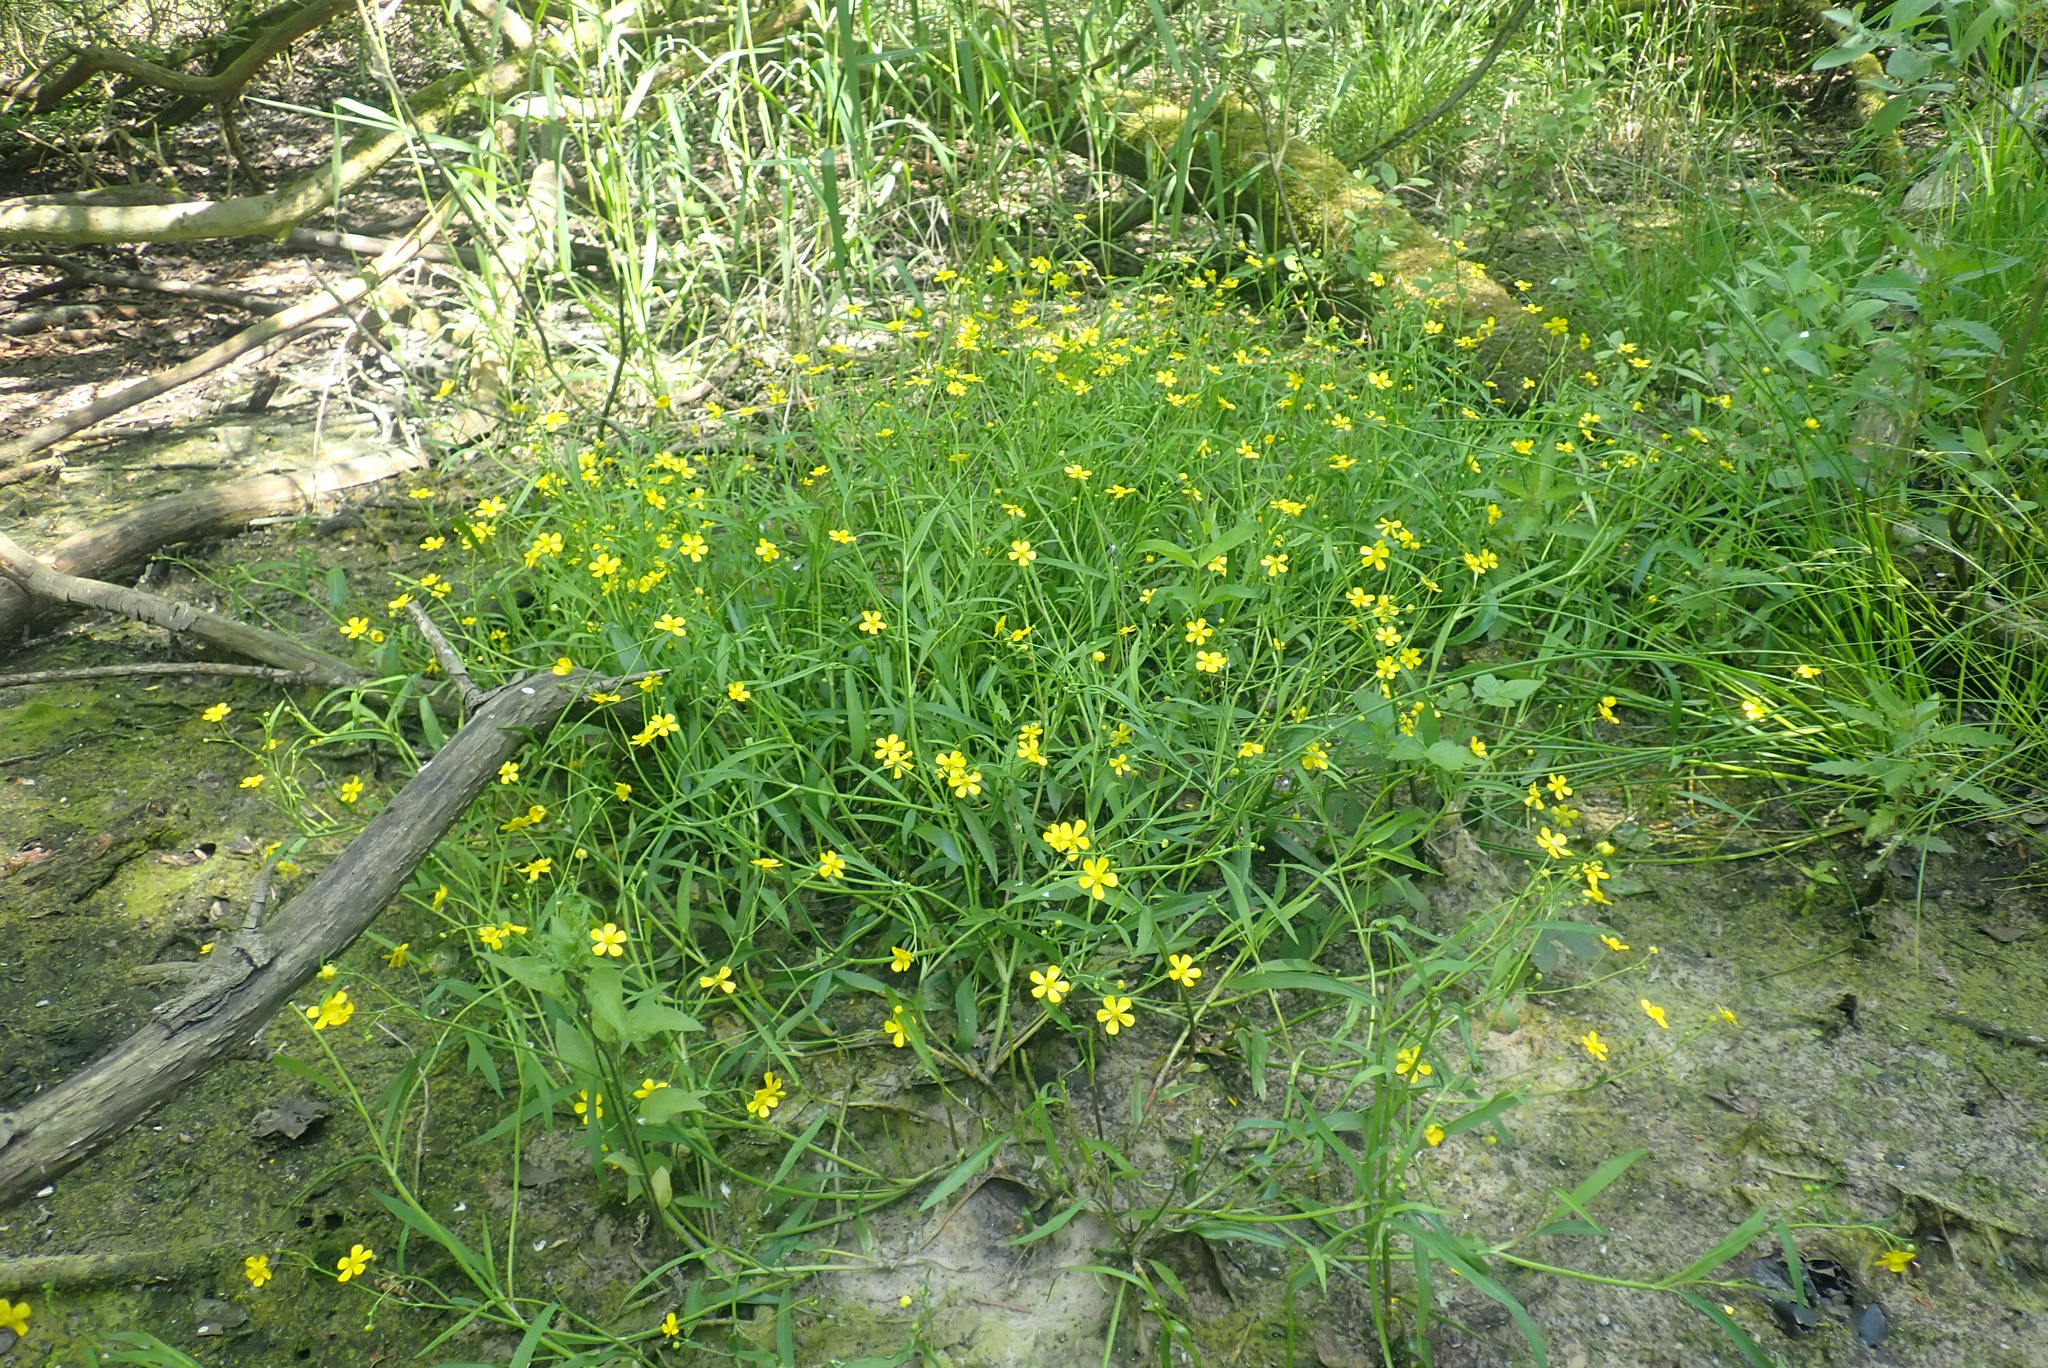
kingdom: Plantae
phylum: Tracheophyta
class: Magnoliopsida
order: Ranunculales
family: Ranunculaceae
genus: Ranunculus
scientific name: Ranunculus flammula
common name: Lesser spearwort
